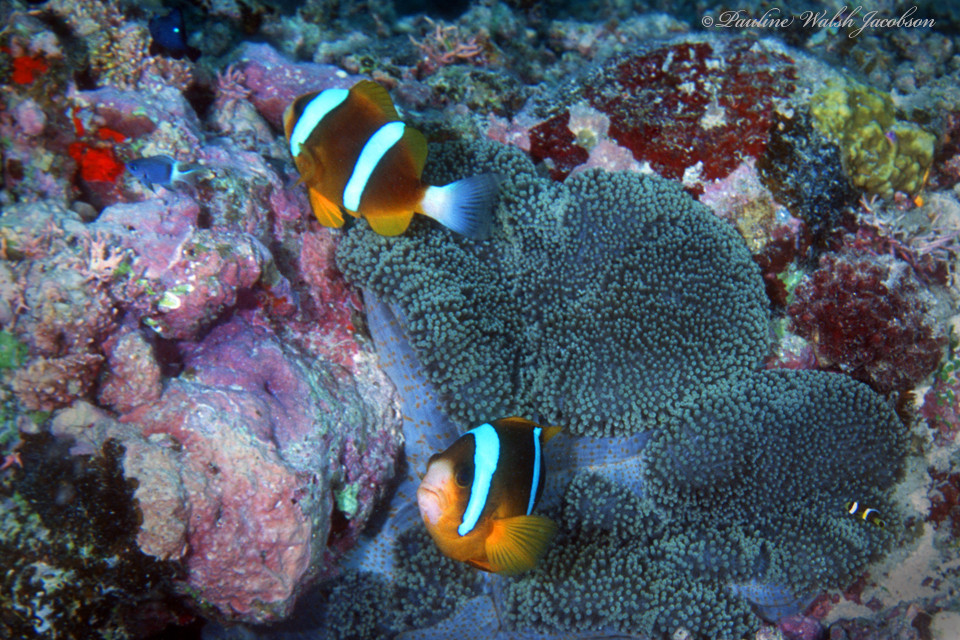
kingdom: Animalia
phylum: Chordata
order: Perciformes
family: Pomacentridae
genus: Amphiprion
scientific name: Amphiprion akindynos
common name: Barrier reef anemonefish
